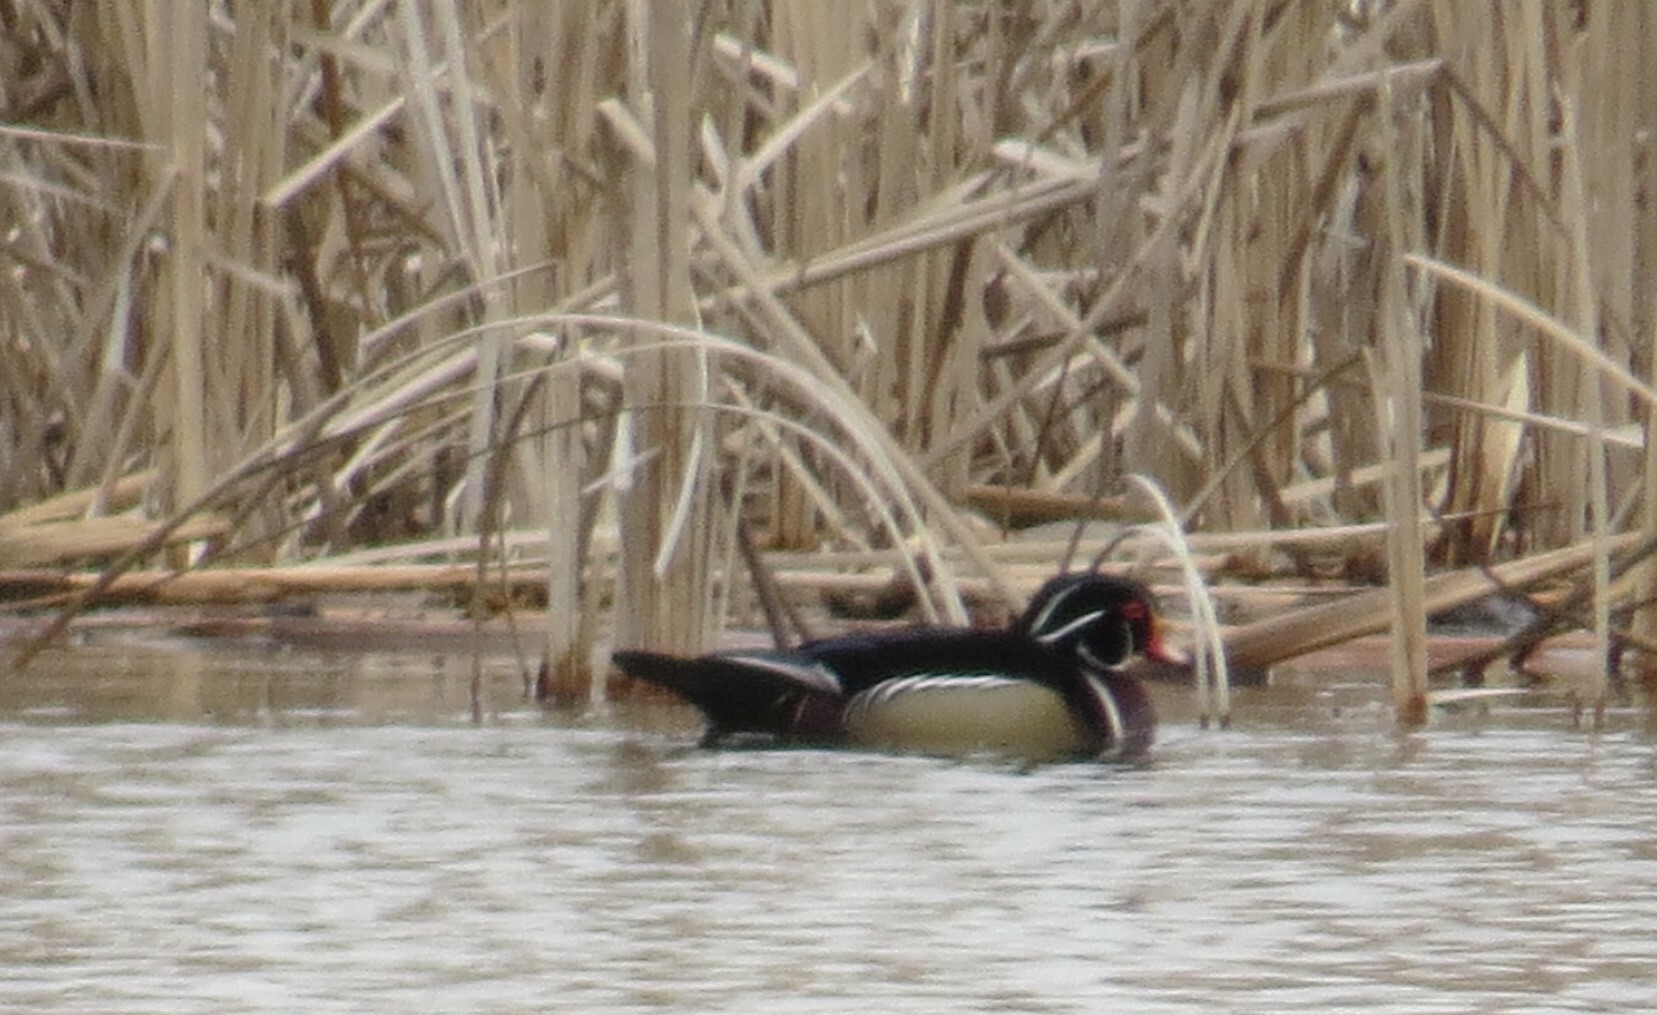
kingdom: Animalia
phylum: Chordata
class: Aves
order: Anseriformes
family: Anatidae
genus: Aix
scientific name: Aix sponsa
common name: Wood duck
